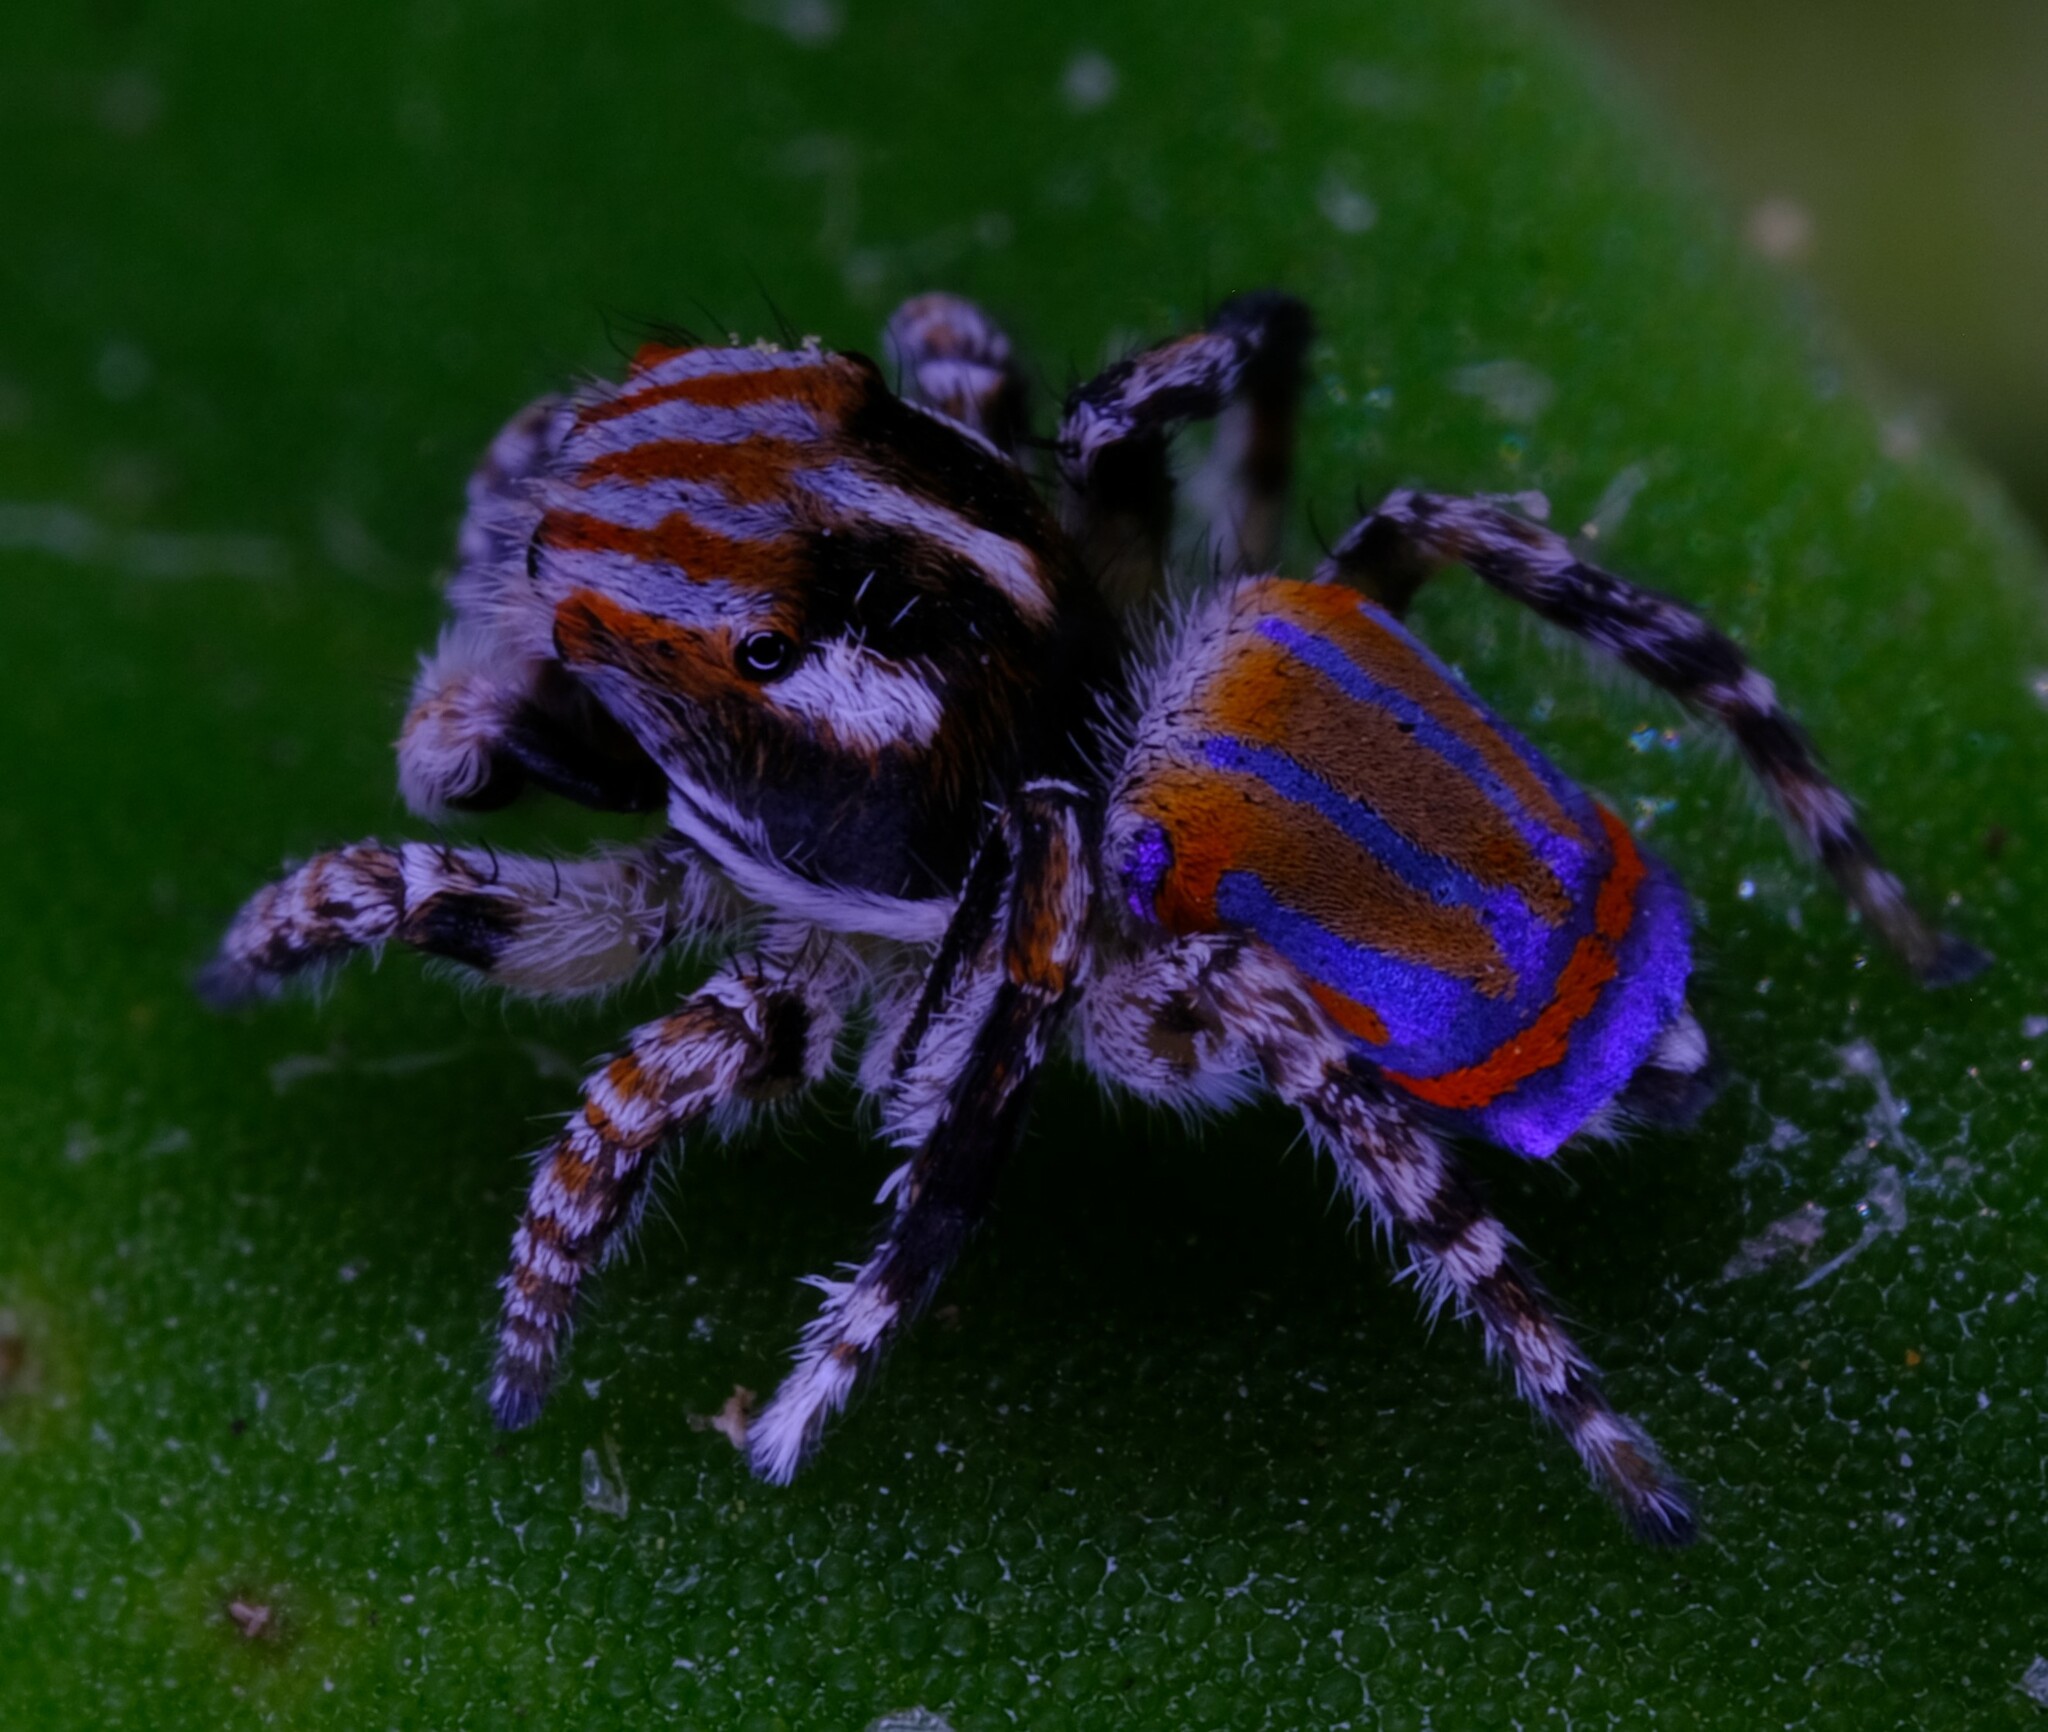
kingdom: Animalia
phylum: Arthropoda
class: Arachnida
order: Araneae
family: Salticidae
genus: Maratus
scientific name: Maratus tasmanicus
